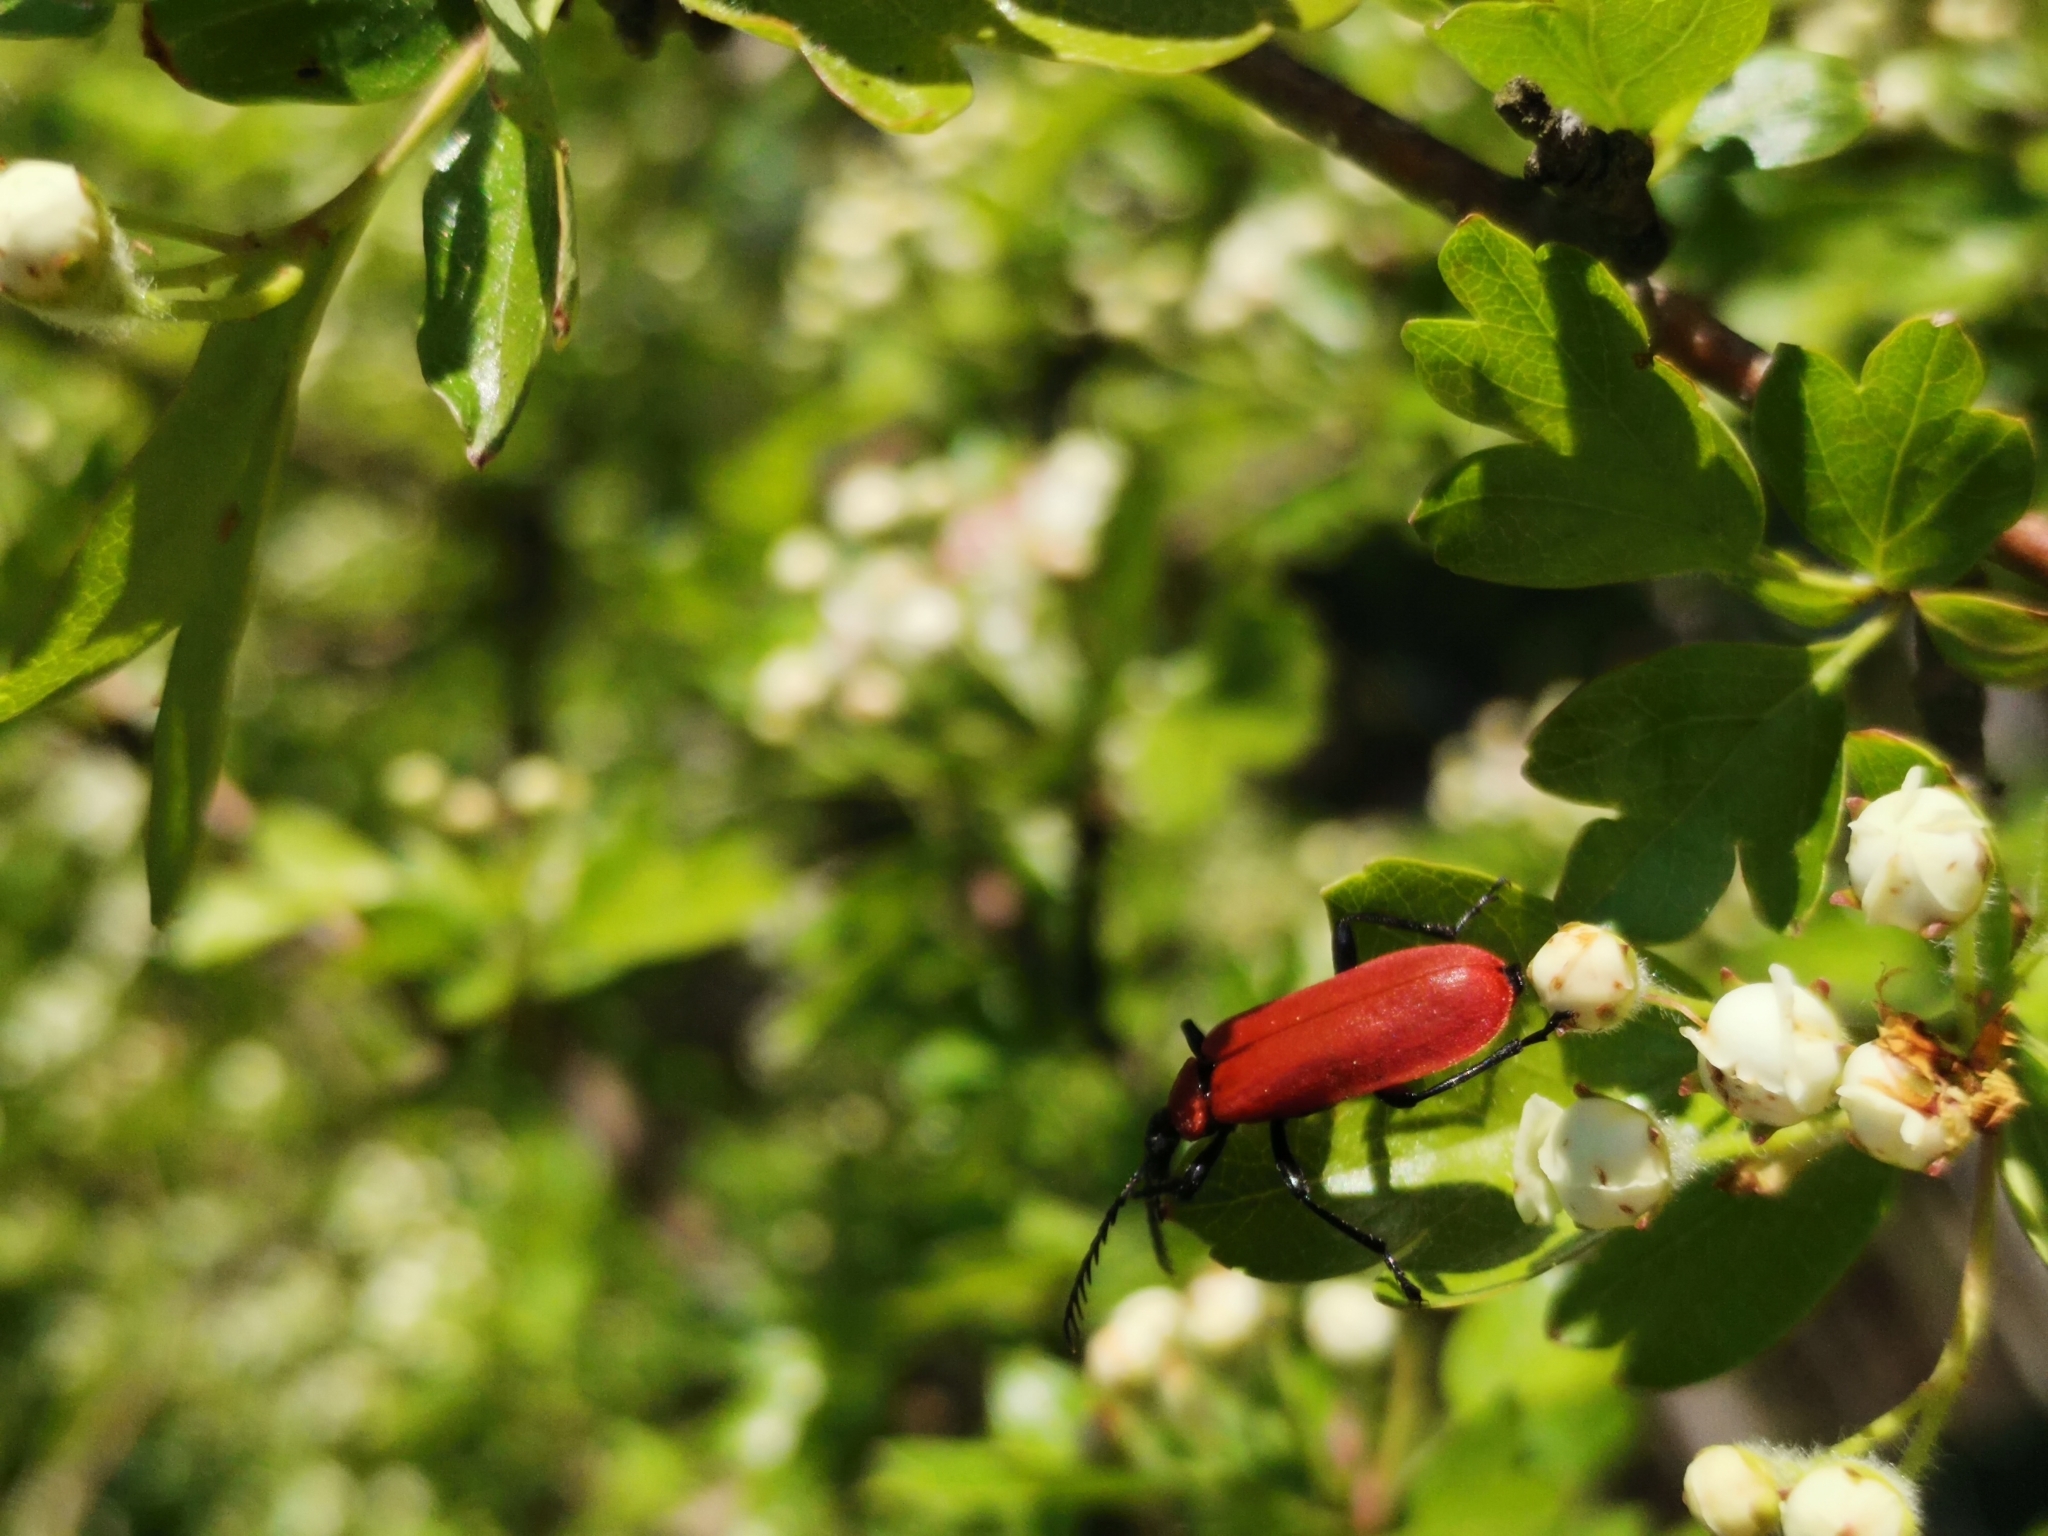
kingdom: Animalia
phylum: Arthropoda
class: Insecta
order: Coleoptera
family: Pyrochroidae
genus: Pyrochroa
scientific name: Pyrochroa coccinea
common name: Black-headed cardinal beetle
